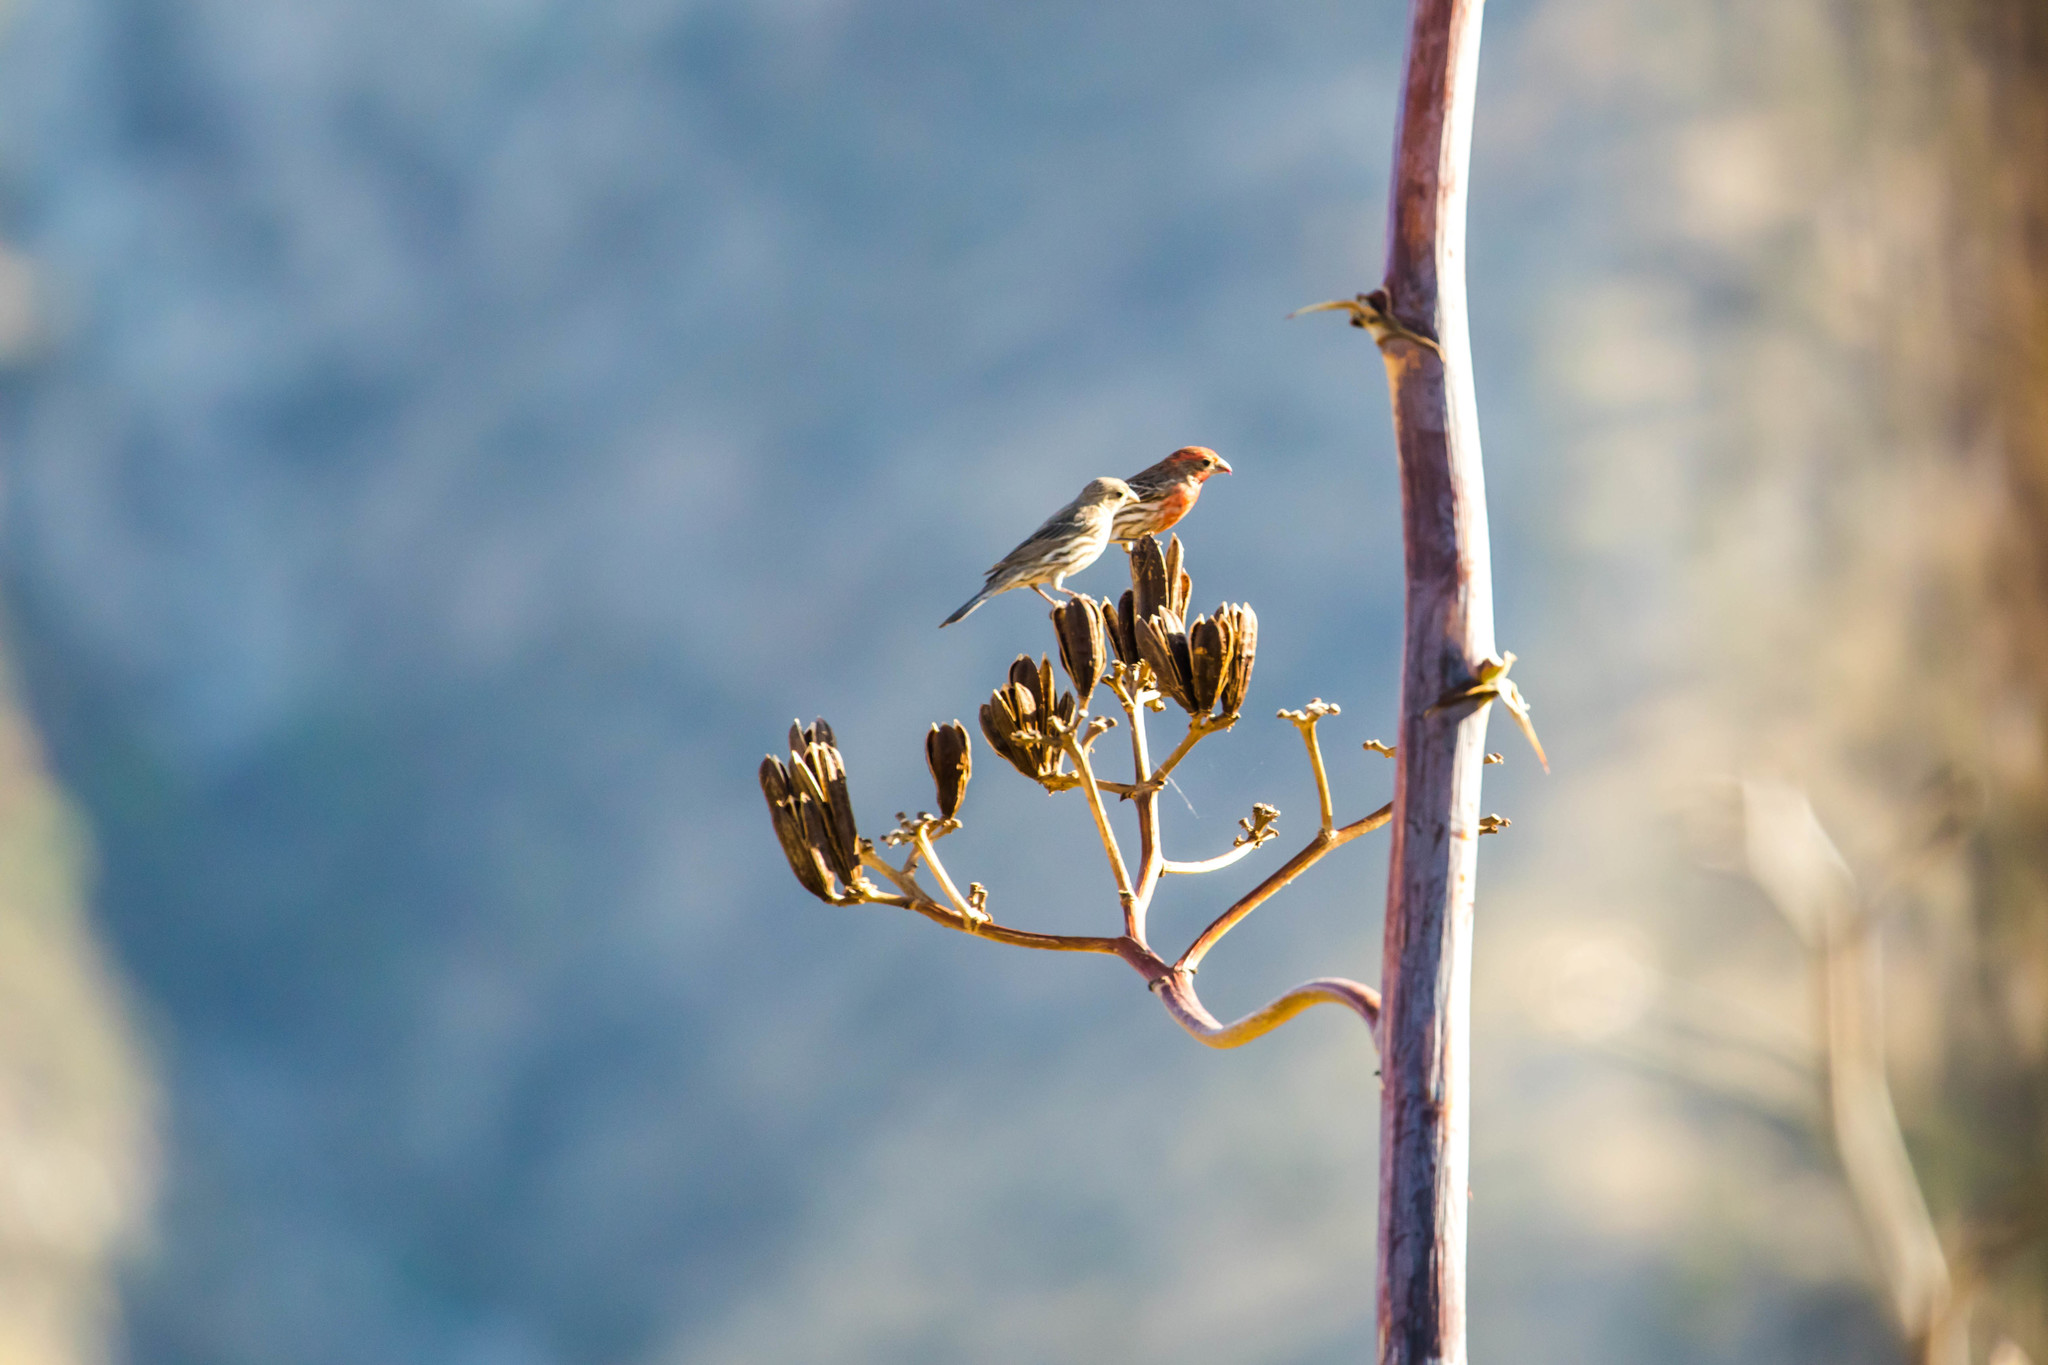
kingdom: Animalia
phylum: Chordata
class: Aves
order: Passeriformes
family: Fringillidae
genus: Haemorhous
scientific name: Haemorhous mexicanus
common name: House finch
